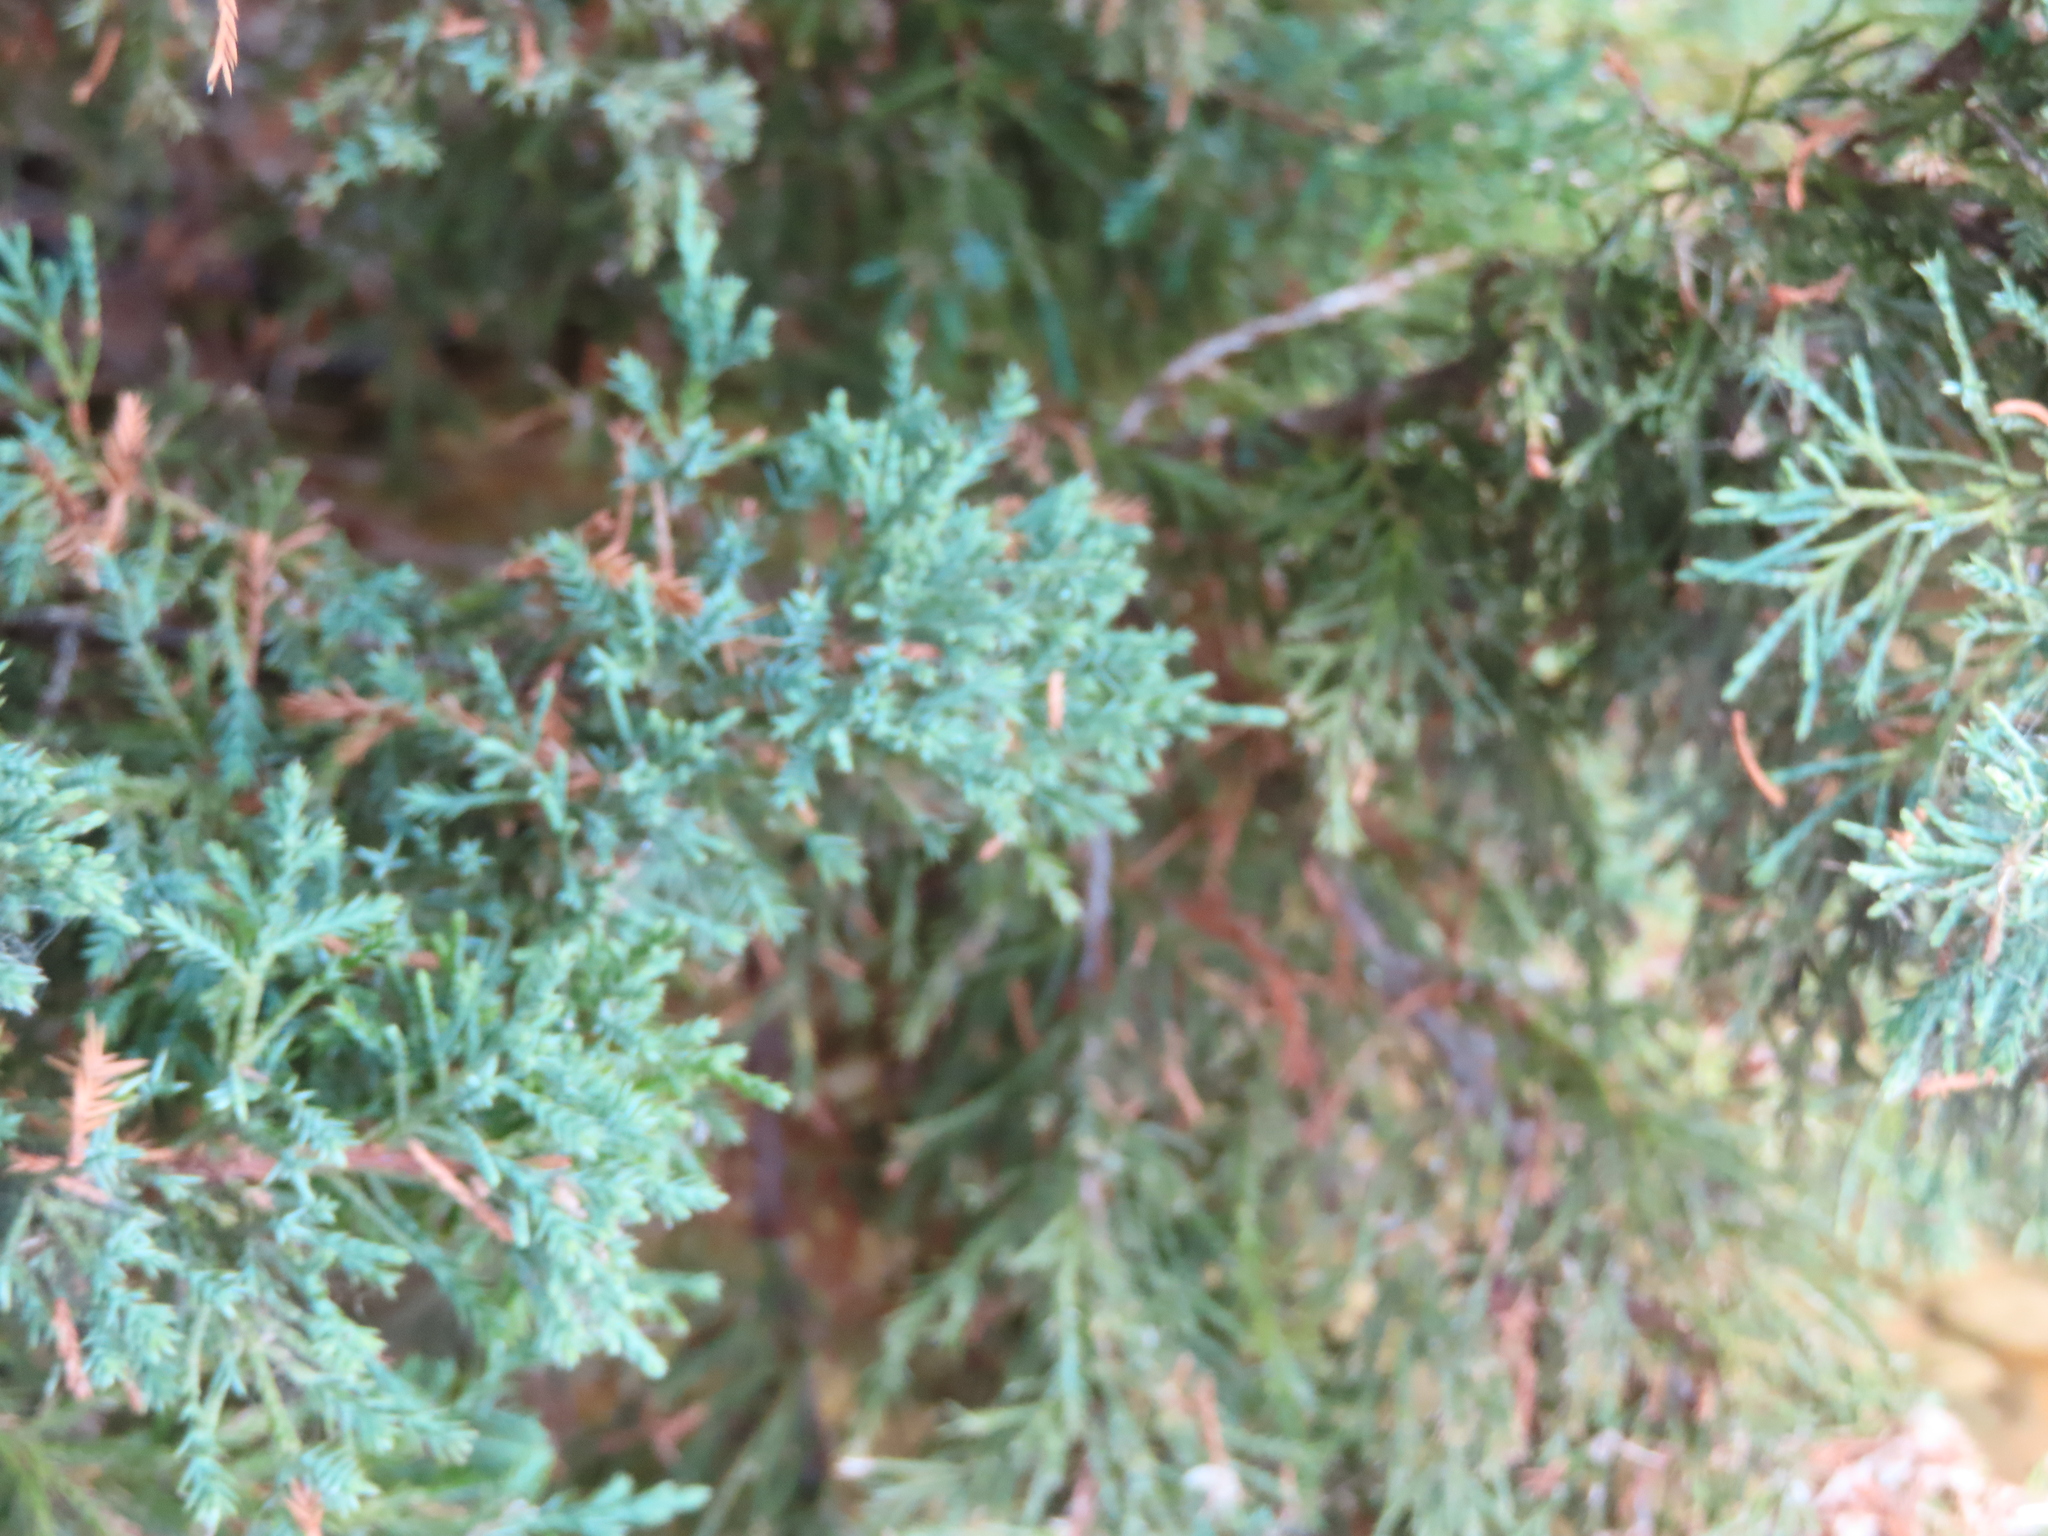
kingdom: Plantae
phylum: Tracheophyta
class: Pinopsida
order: Pinales
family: Cupressaceae
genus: Juniperus
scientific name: Juniperus virginiana
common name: Red juniper
